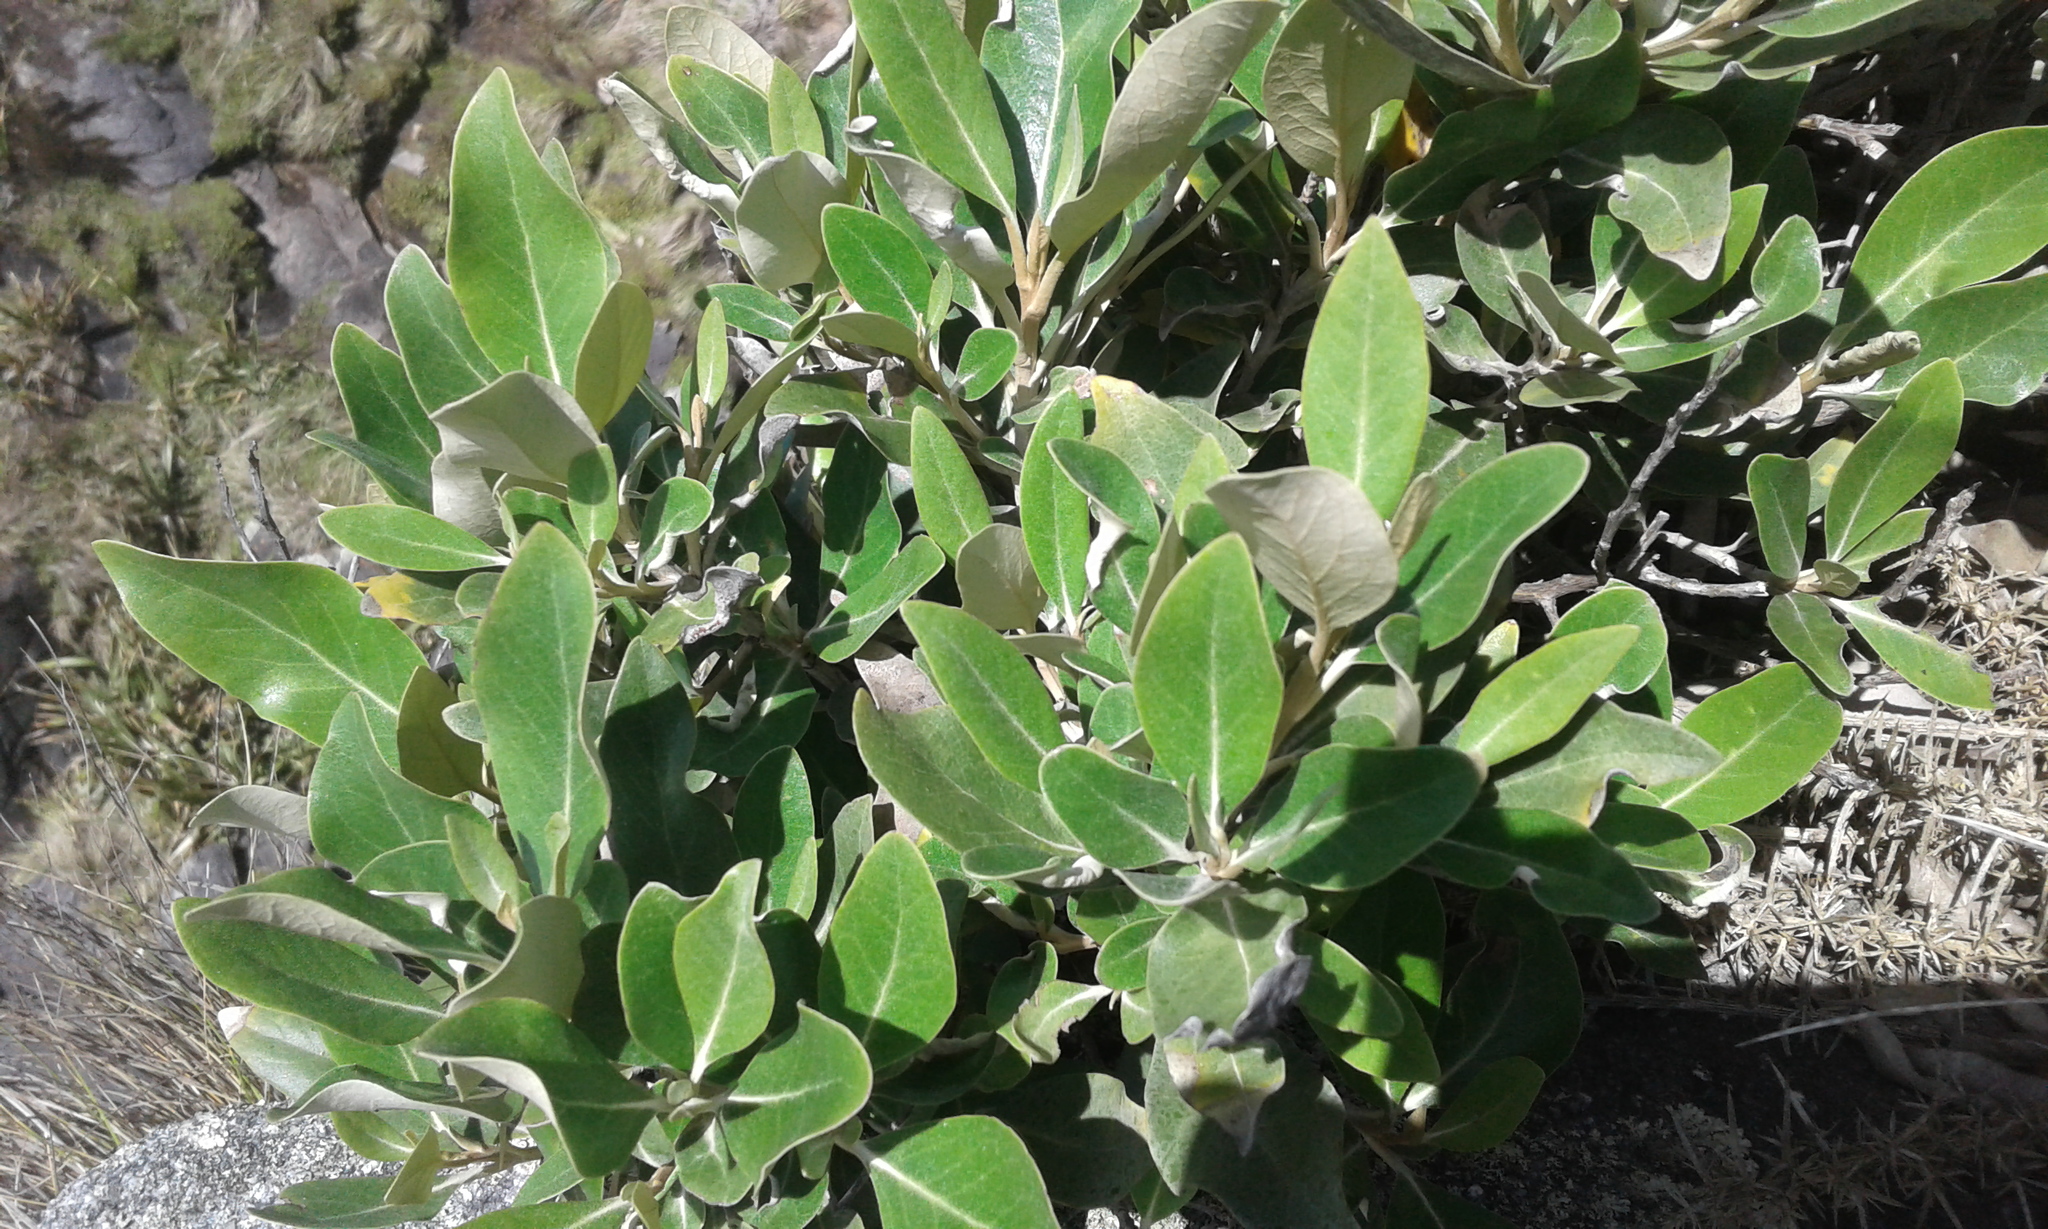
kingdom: Plantae
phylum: Tracheophyta
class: Magnoliopsida
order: Asterales
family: Asteraceae
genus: Olearia
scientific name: Olearia avicenniifolia
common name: Mangrove-leaf daisybush
